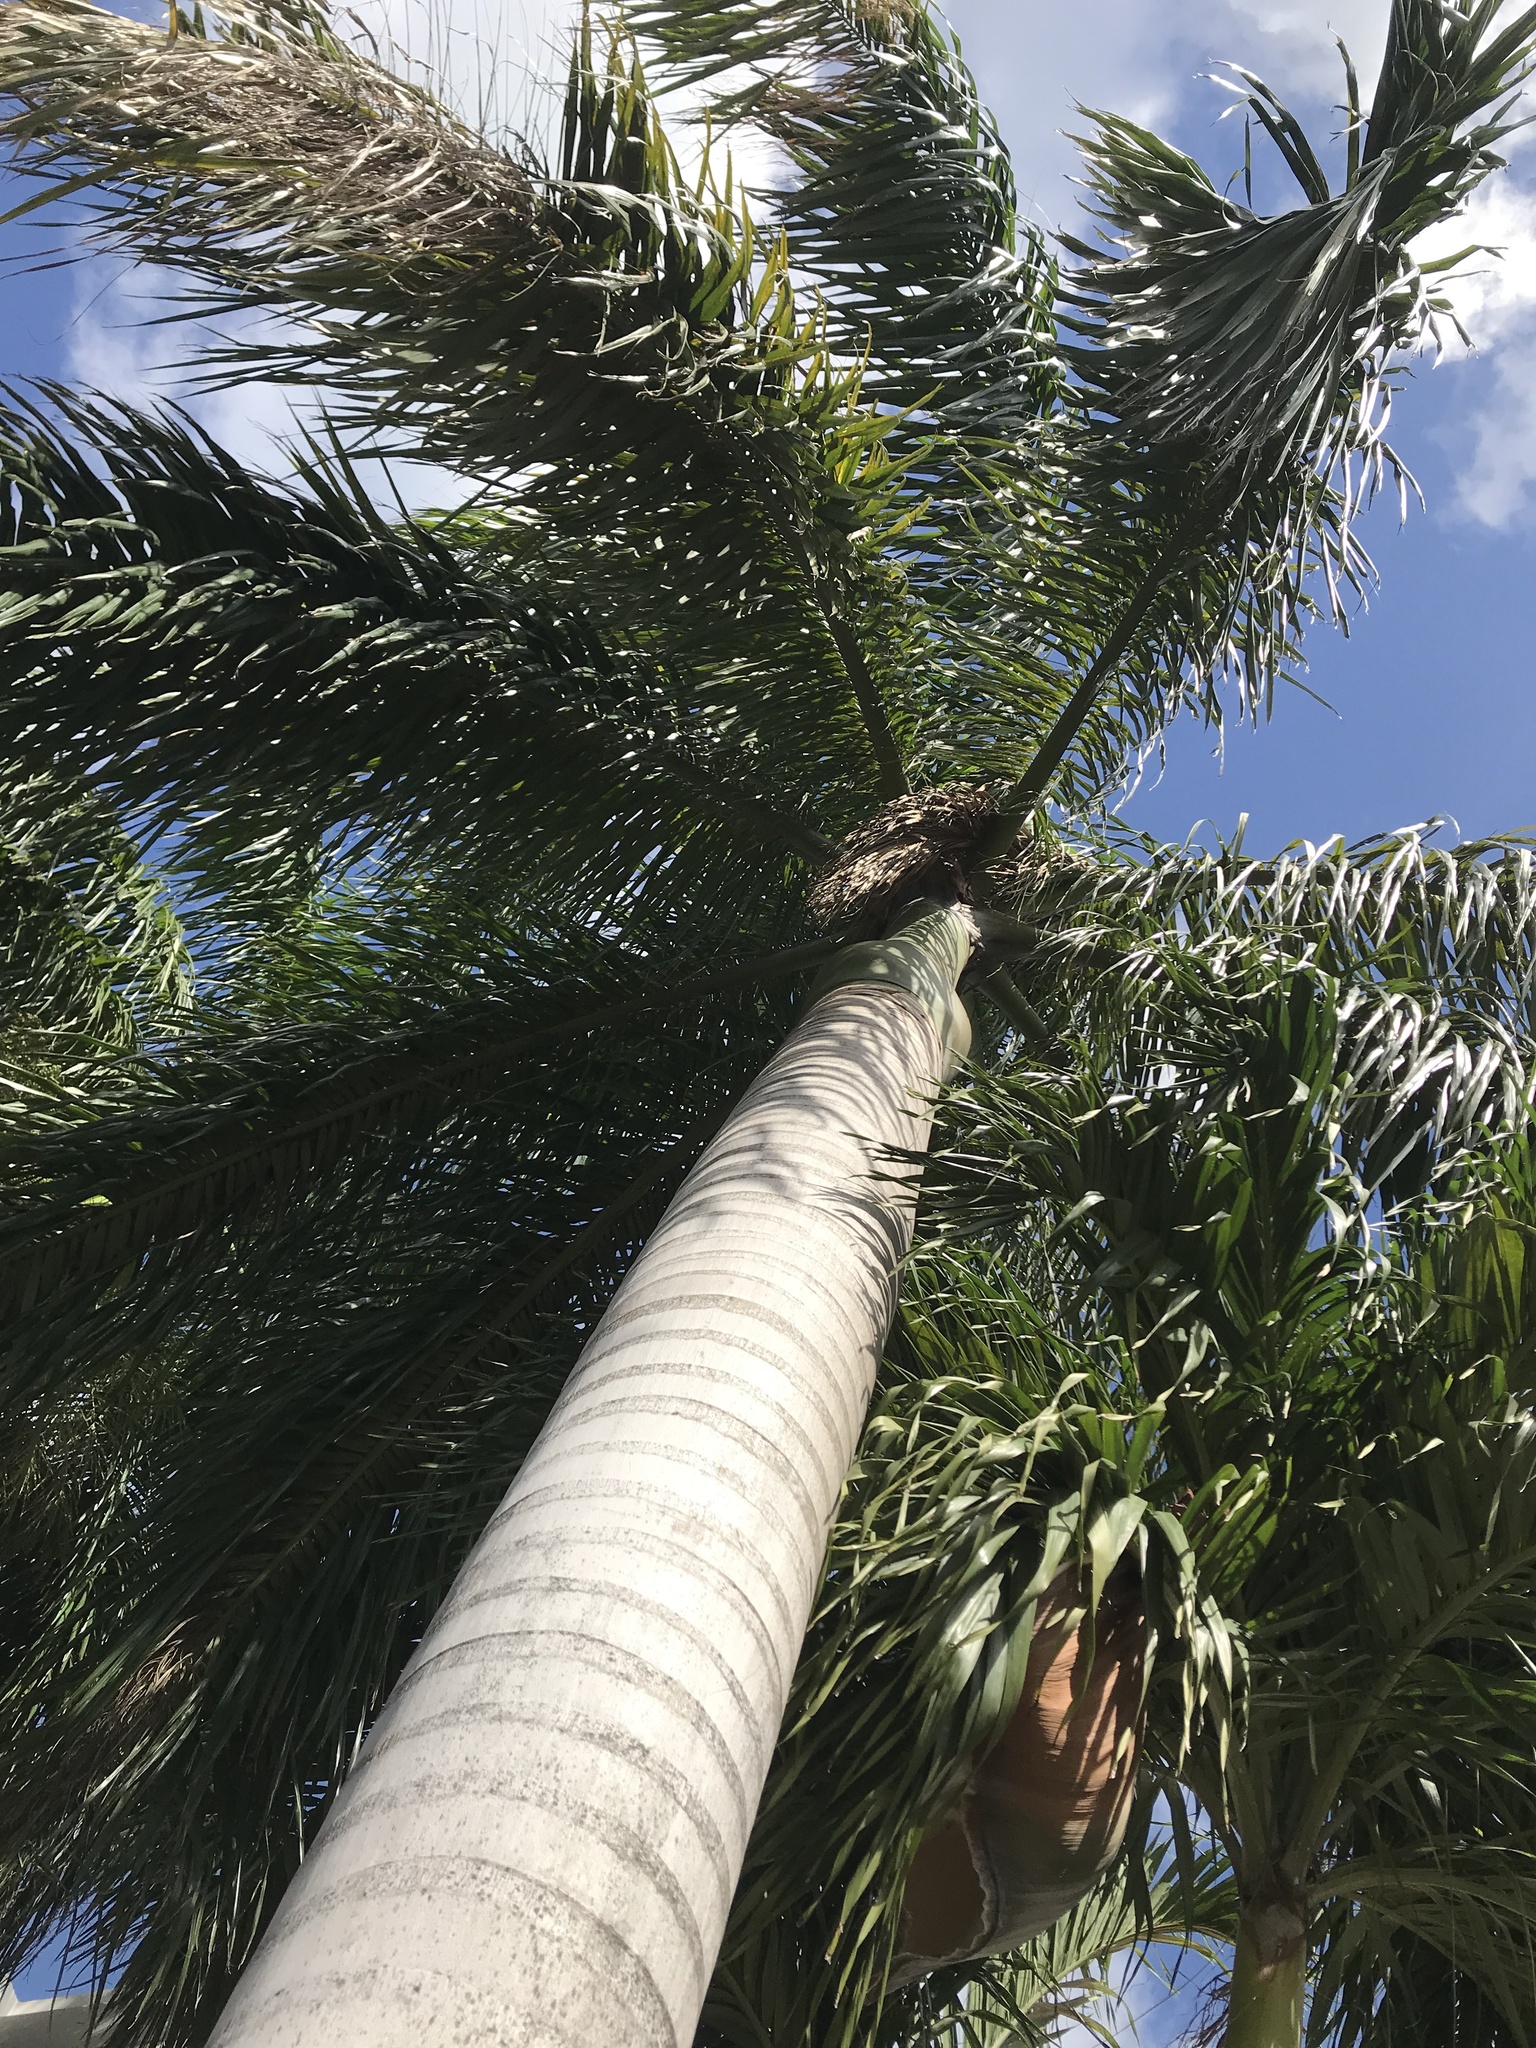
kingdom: Plantae
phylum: Tracheophyta
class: Liliopsida
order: Arecales
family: Arecaceae
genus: Roystonea
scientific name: Roystonea regia
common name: Florida royal palm
